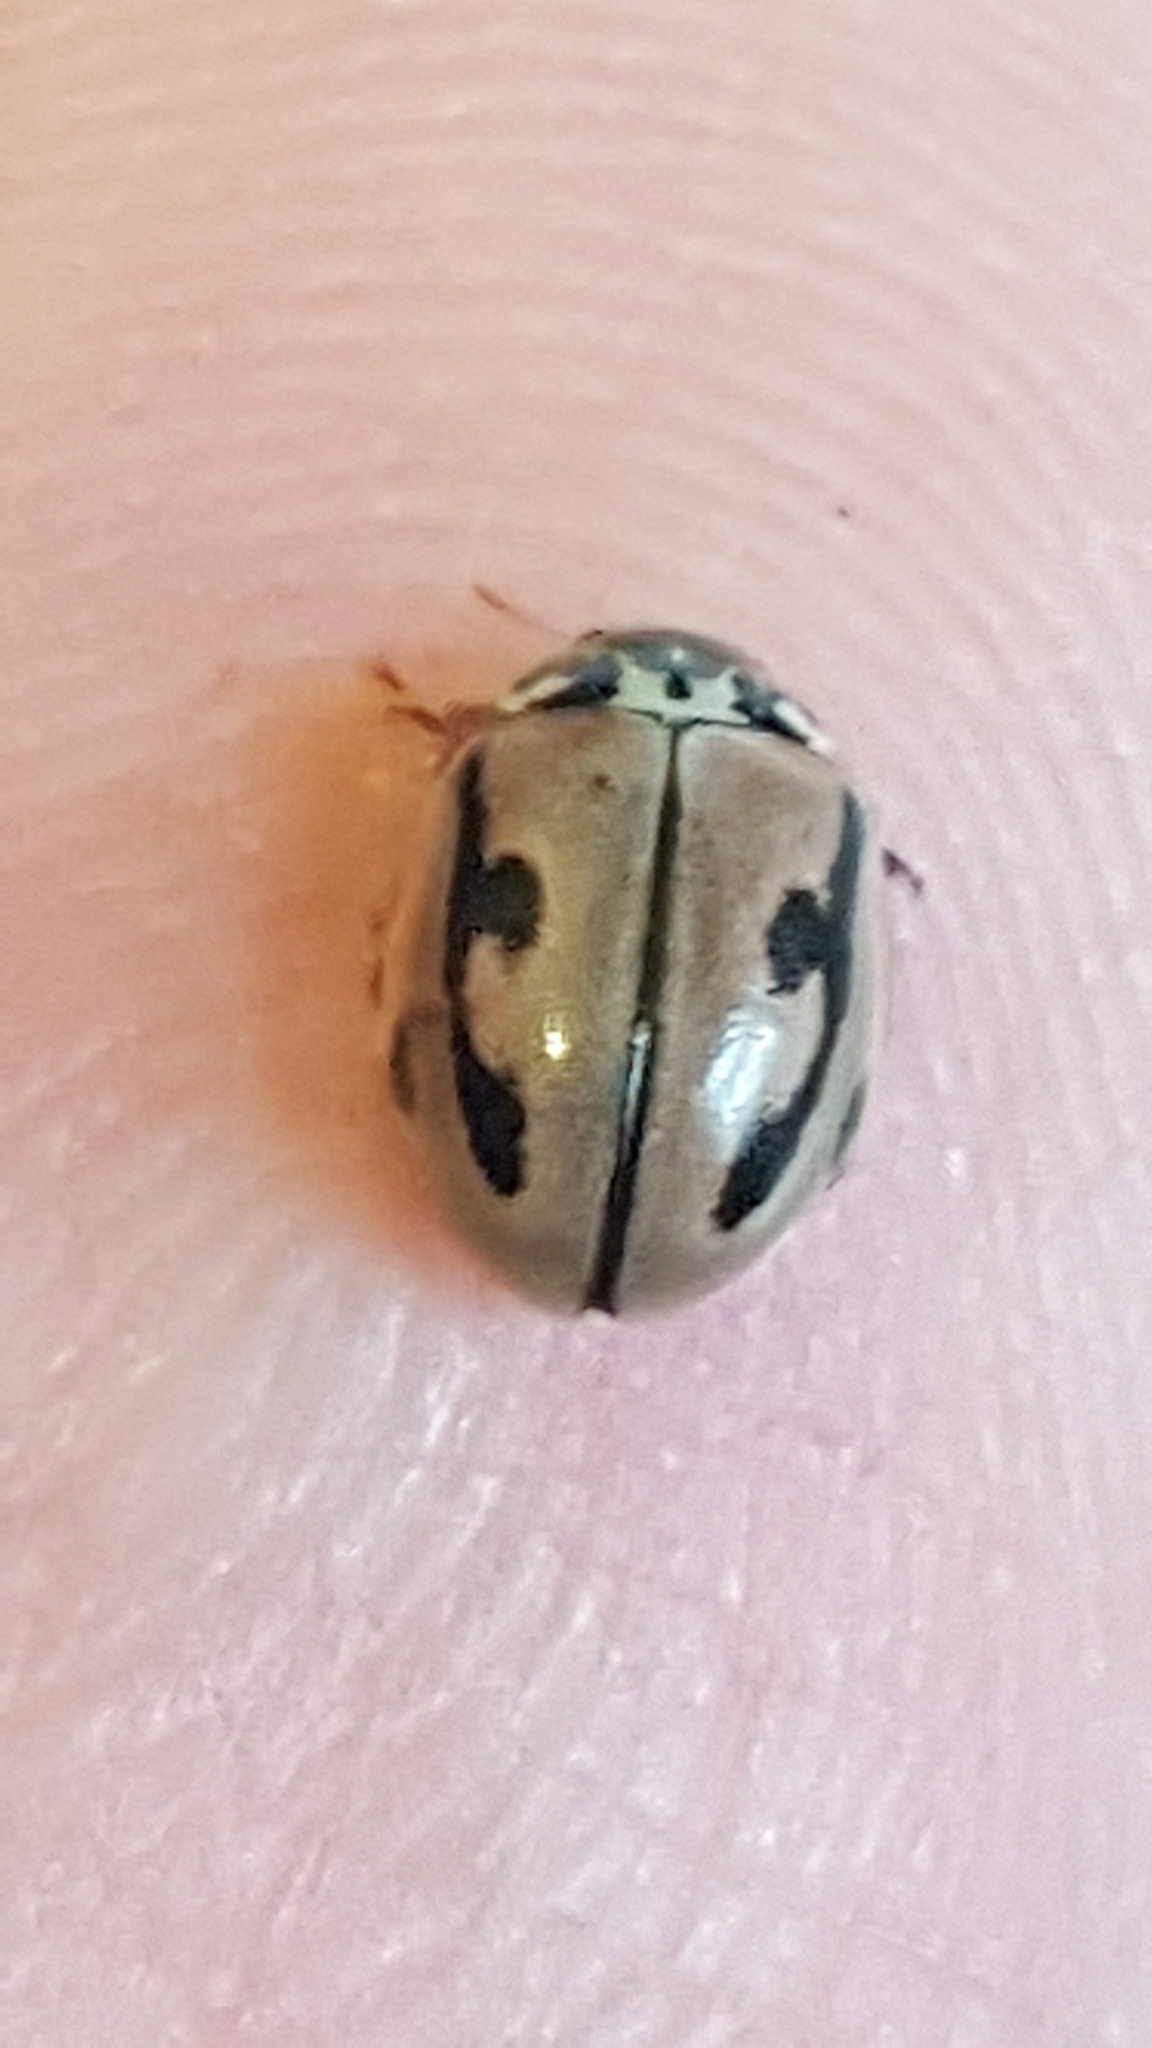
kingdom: Animalia
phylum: Arthropoda
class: Insecta
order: Coleoptera
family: Coccinellidae
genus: Mulsantina
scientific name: Mulsantina hudsonica
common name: Hudsonian ladybird
